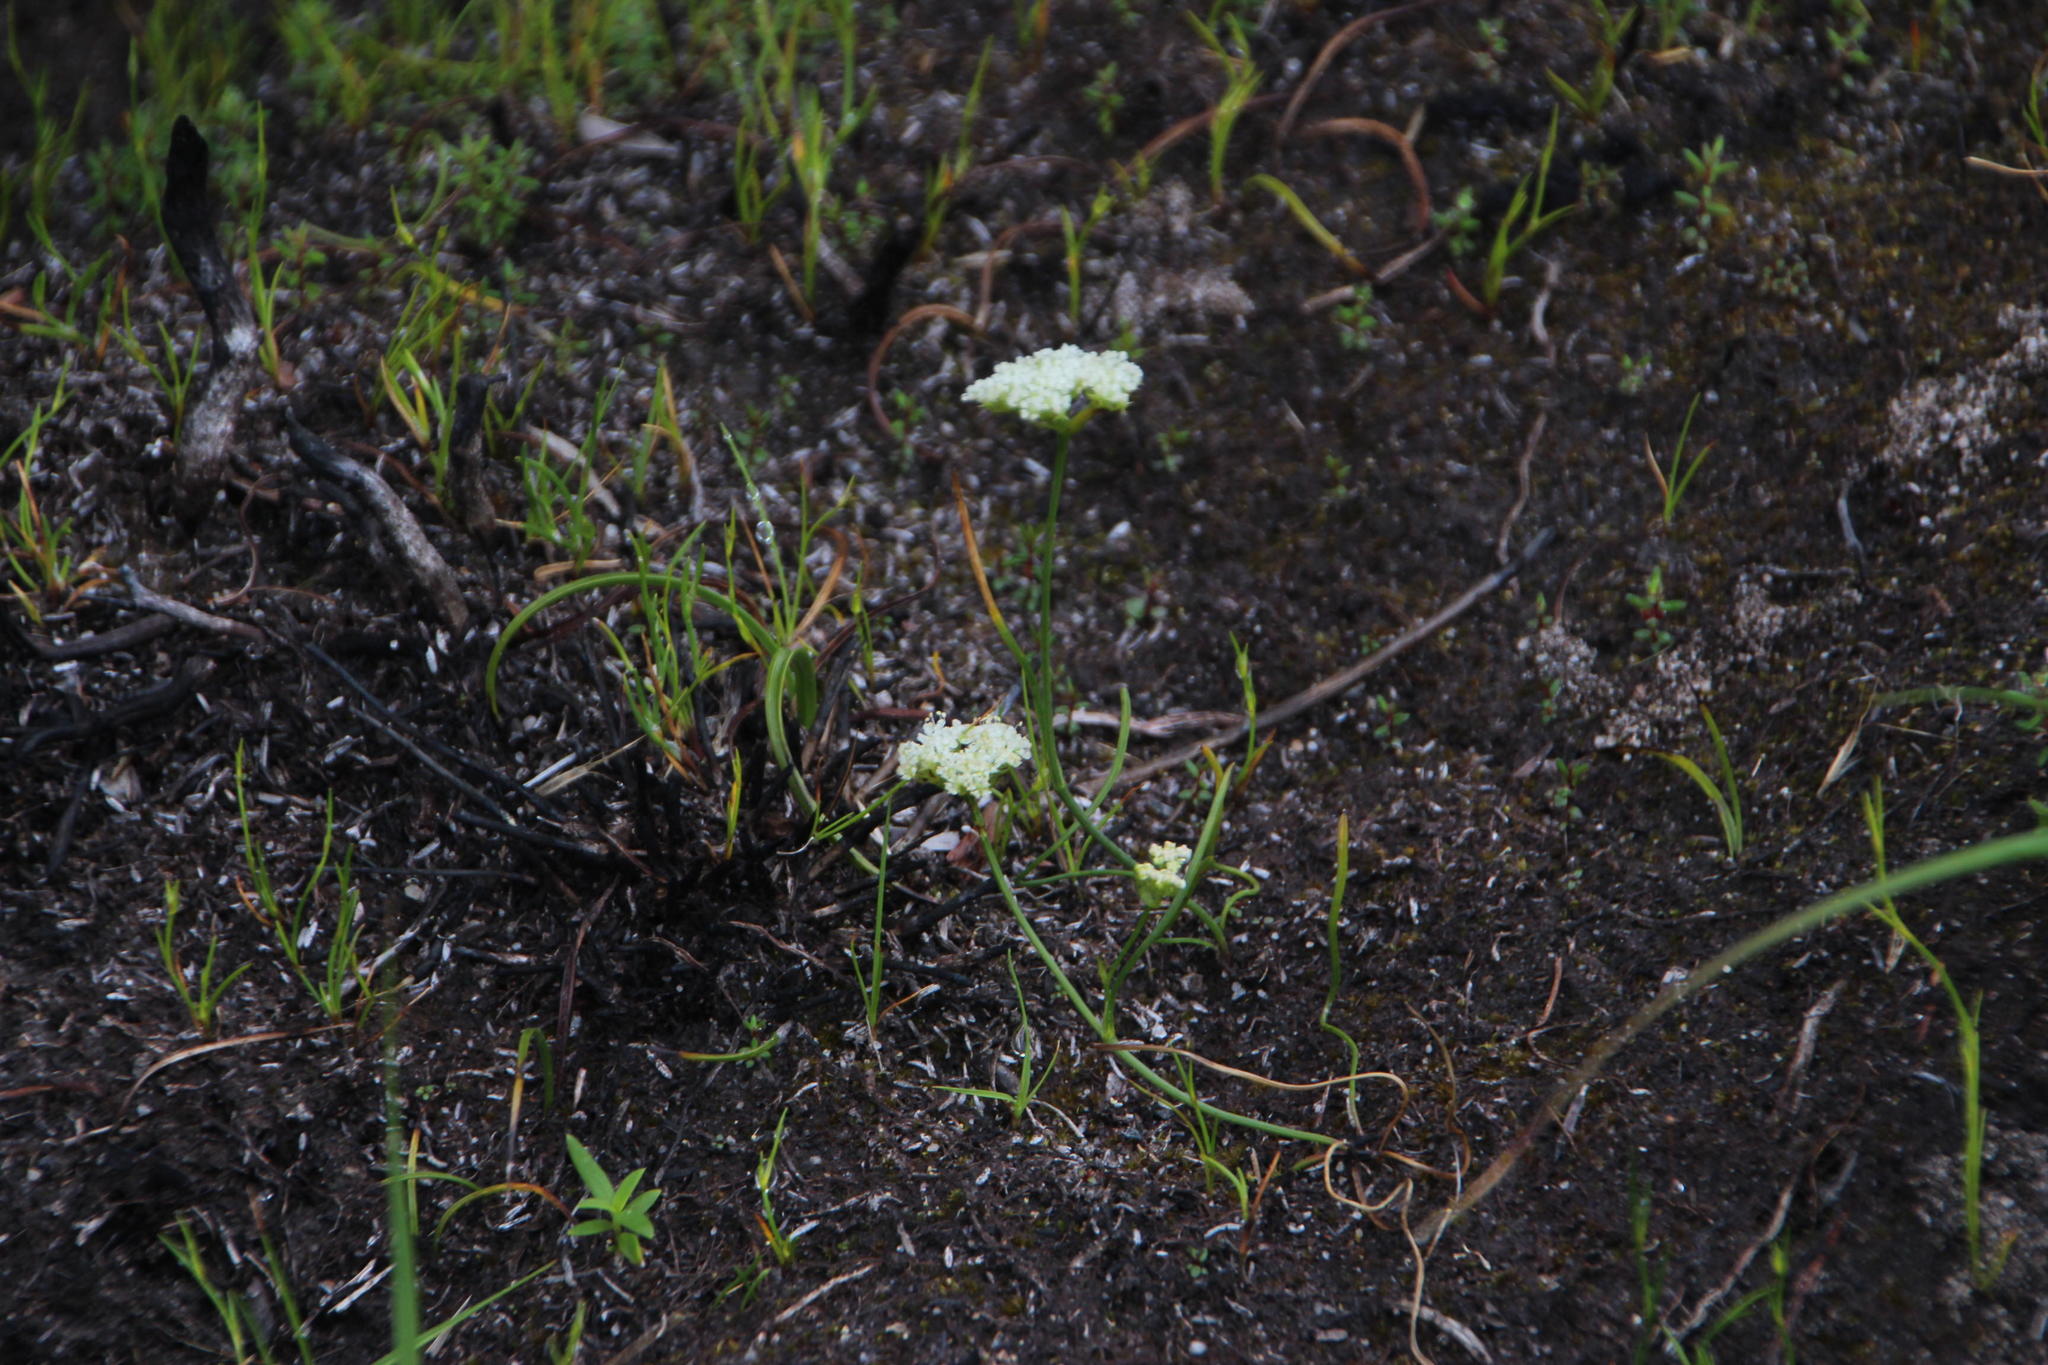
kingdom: Plantae
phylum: Tracheophyta
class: Magnoliopsida
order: Apiales
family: Apiaceae
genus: Itasina
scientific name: Itasina filifolia
